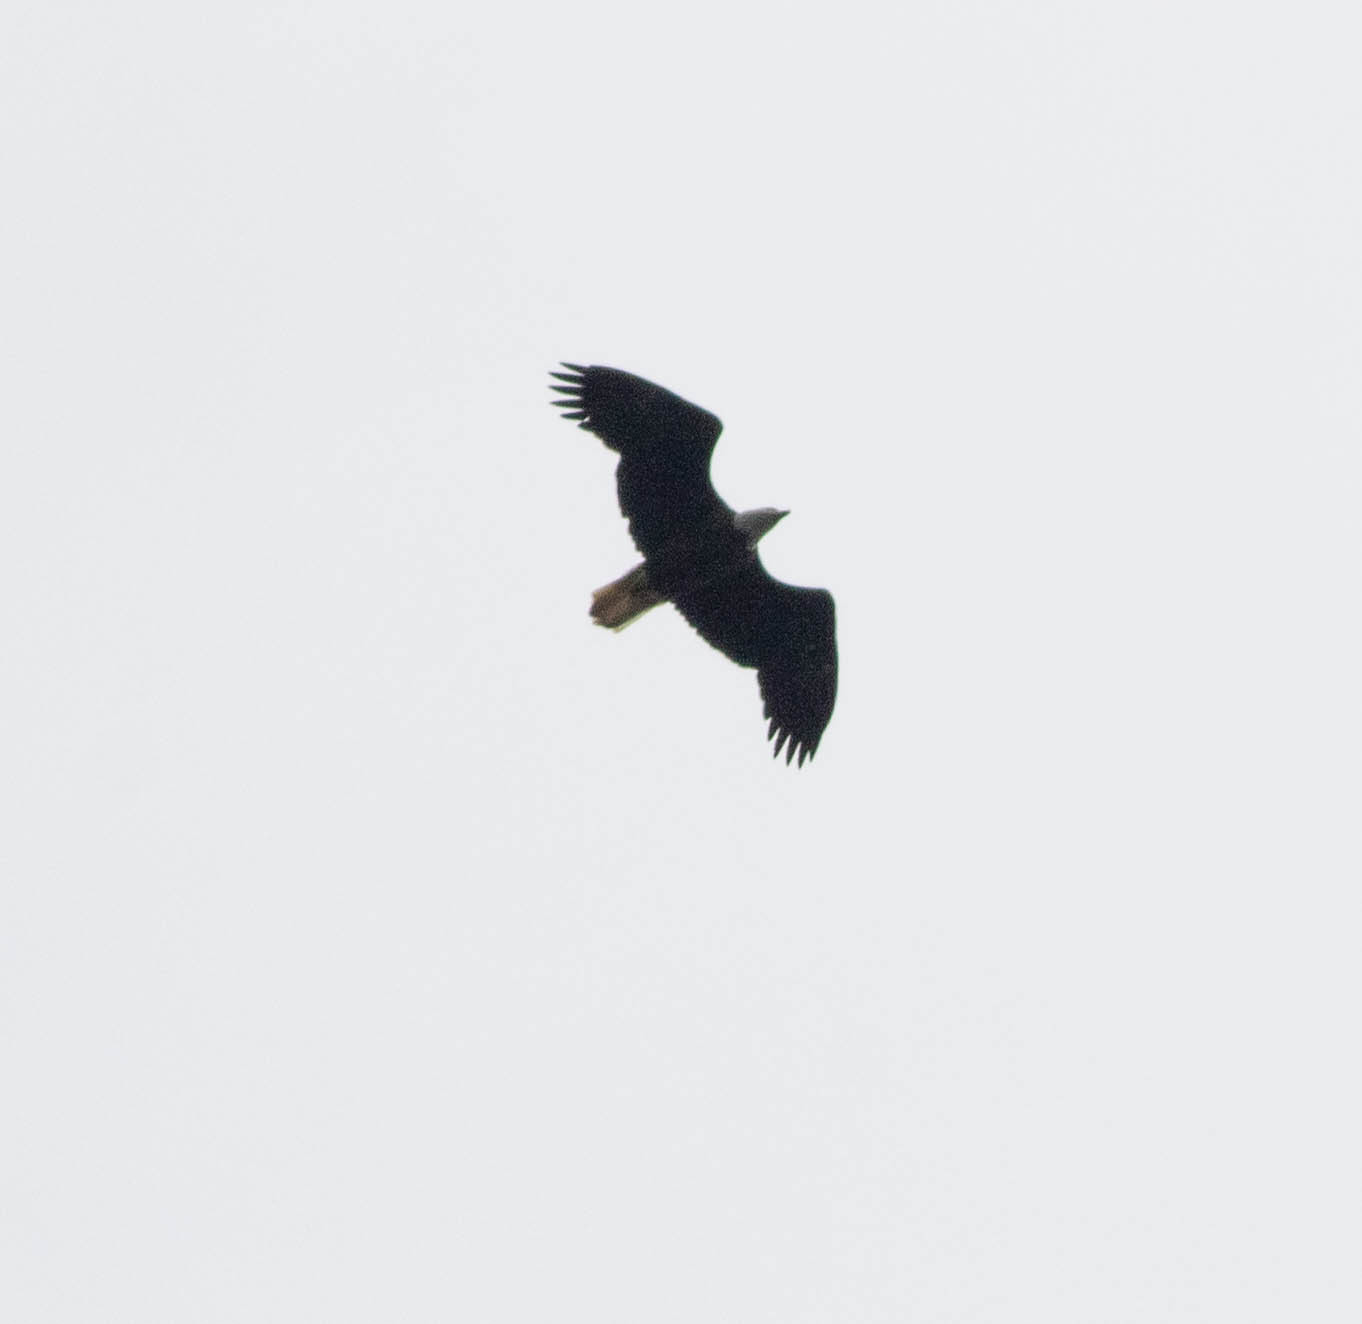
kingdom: Animalia
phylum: Chordata
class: Aves
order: Accipitriformes
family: Accipitridae
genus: Haliaeetus
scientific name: Haliaeetus leucocephalus
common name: Bald eagle
